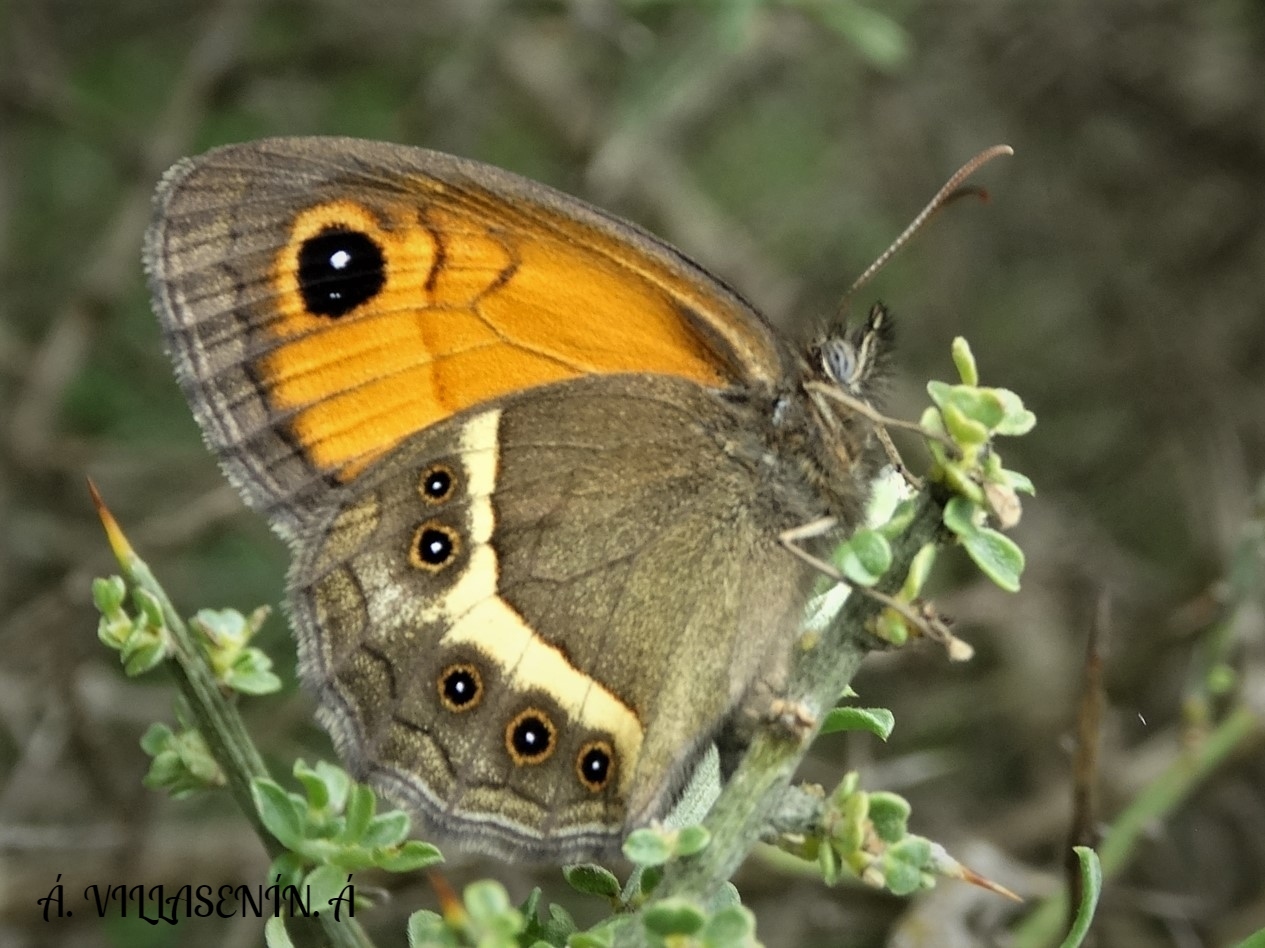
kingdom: Animalia
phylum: Arthropoda
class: Insecta
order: Lepidoptera
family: Nymphalidae
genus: Pyronia
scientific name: Pyronia bathseba
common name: Spanish gatekeeper
